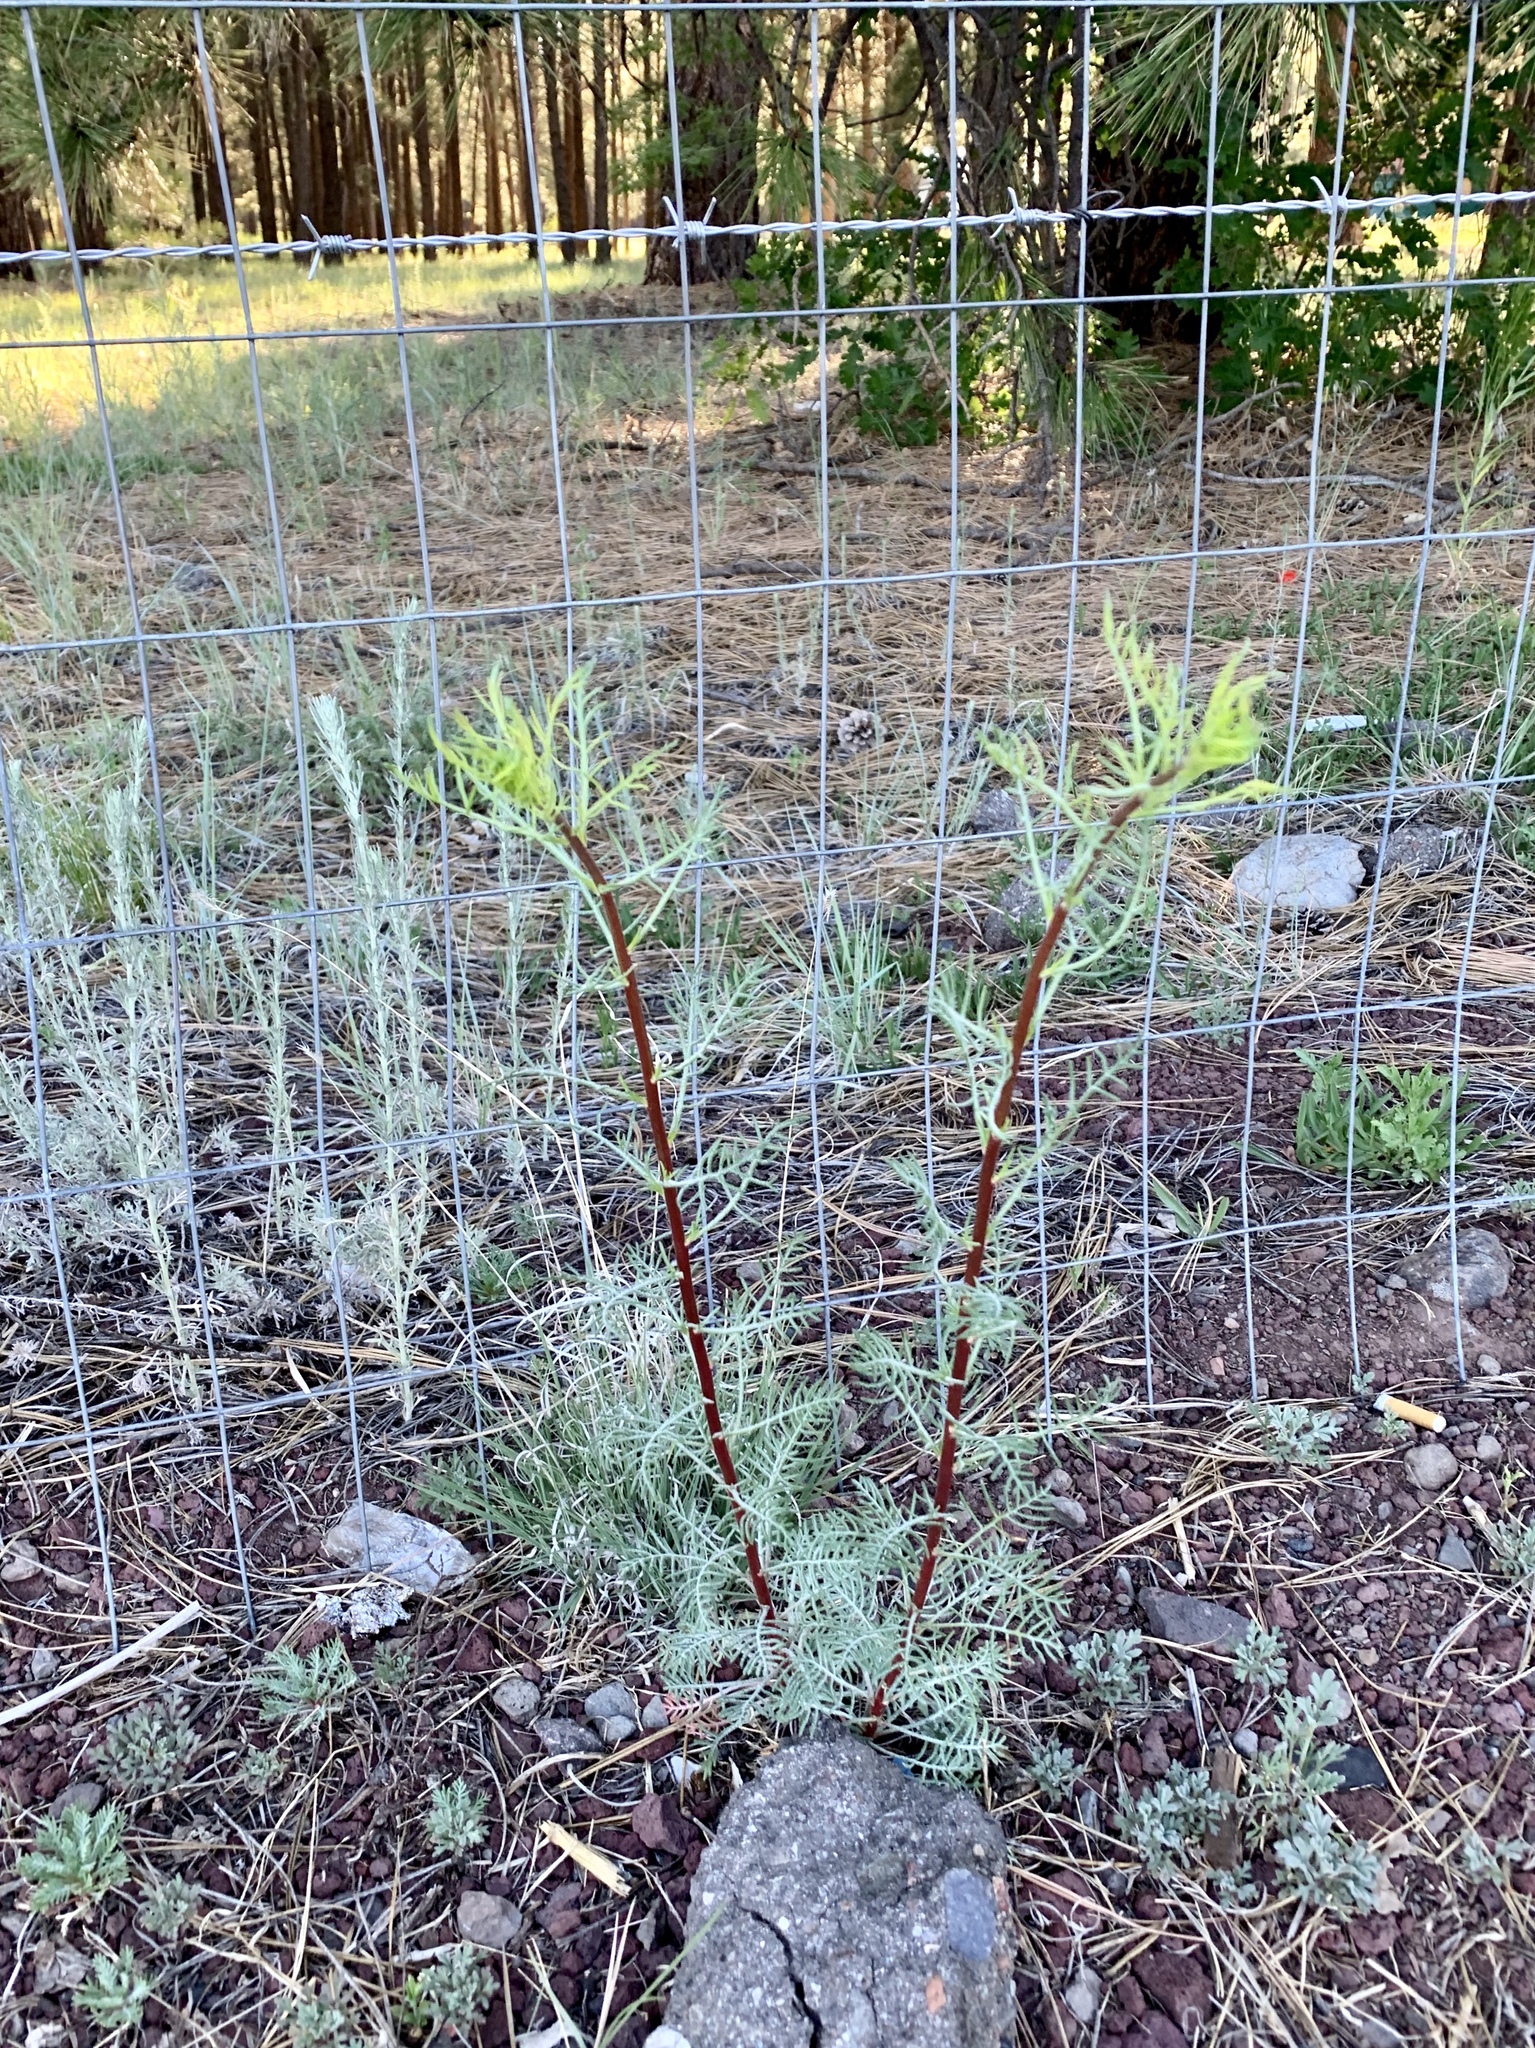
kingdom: Plantae
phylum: Tracheophyta
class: Magnoliopsida
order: Ericales
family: Polemoniaceae
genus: Ipomopsis
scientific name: Ipomopsis aggregata
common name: Scarlet gilia
